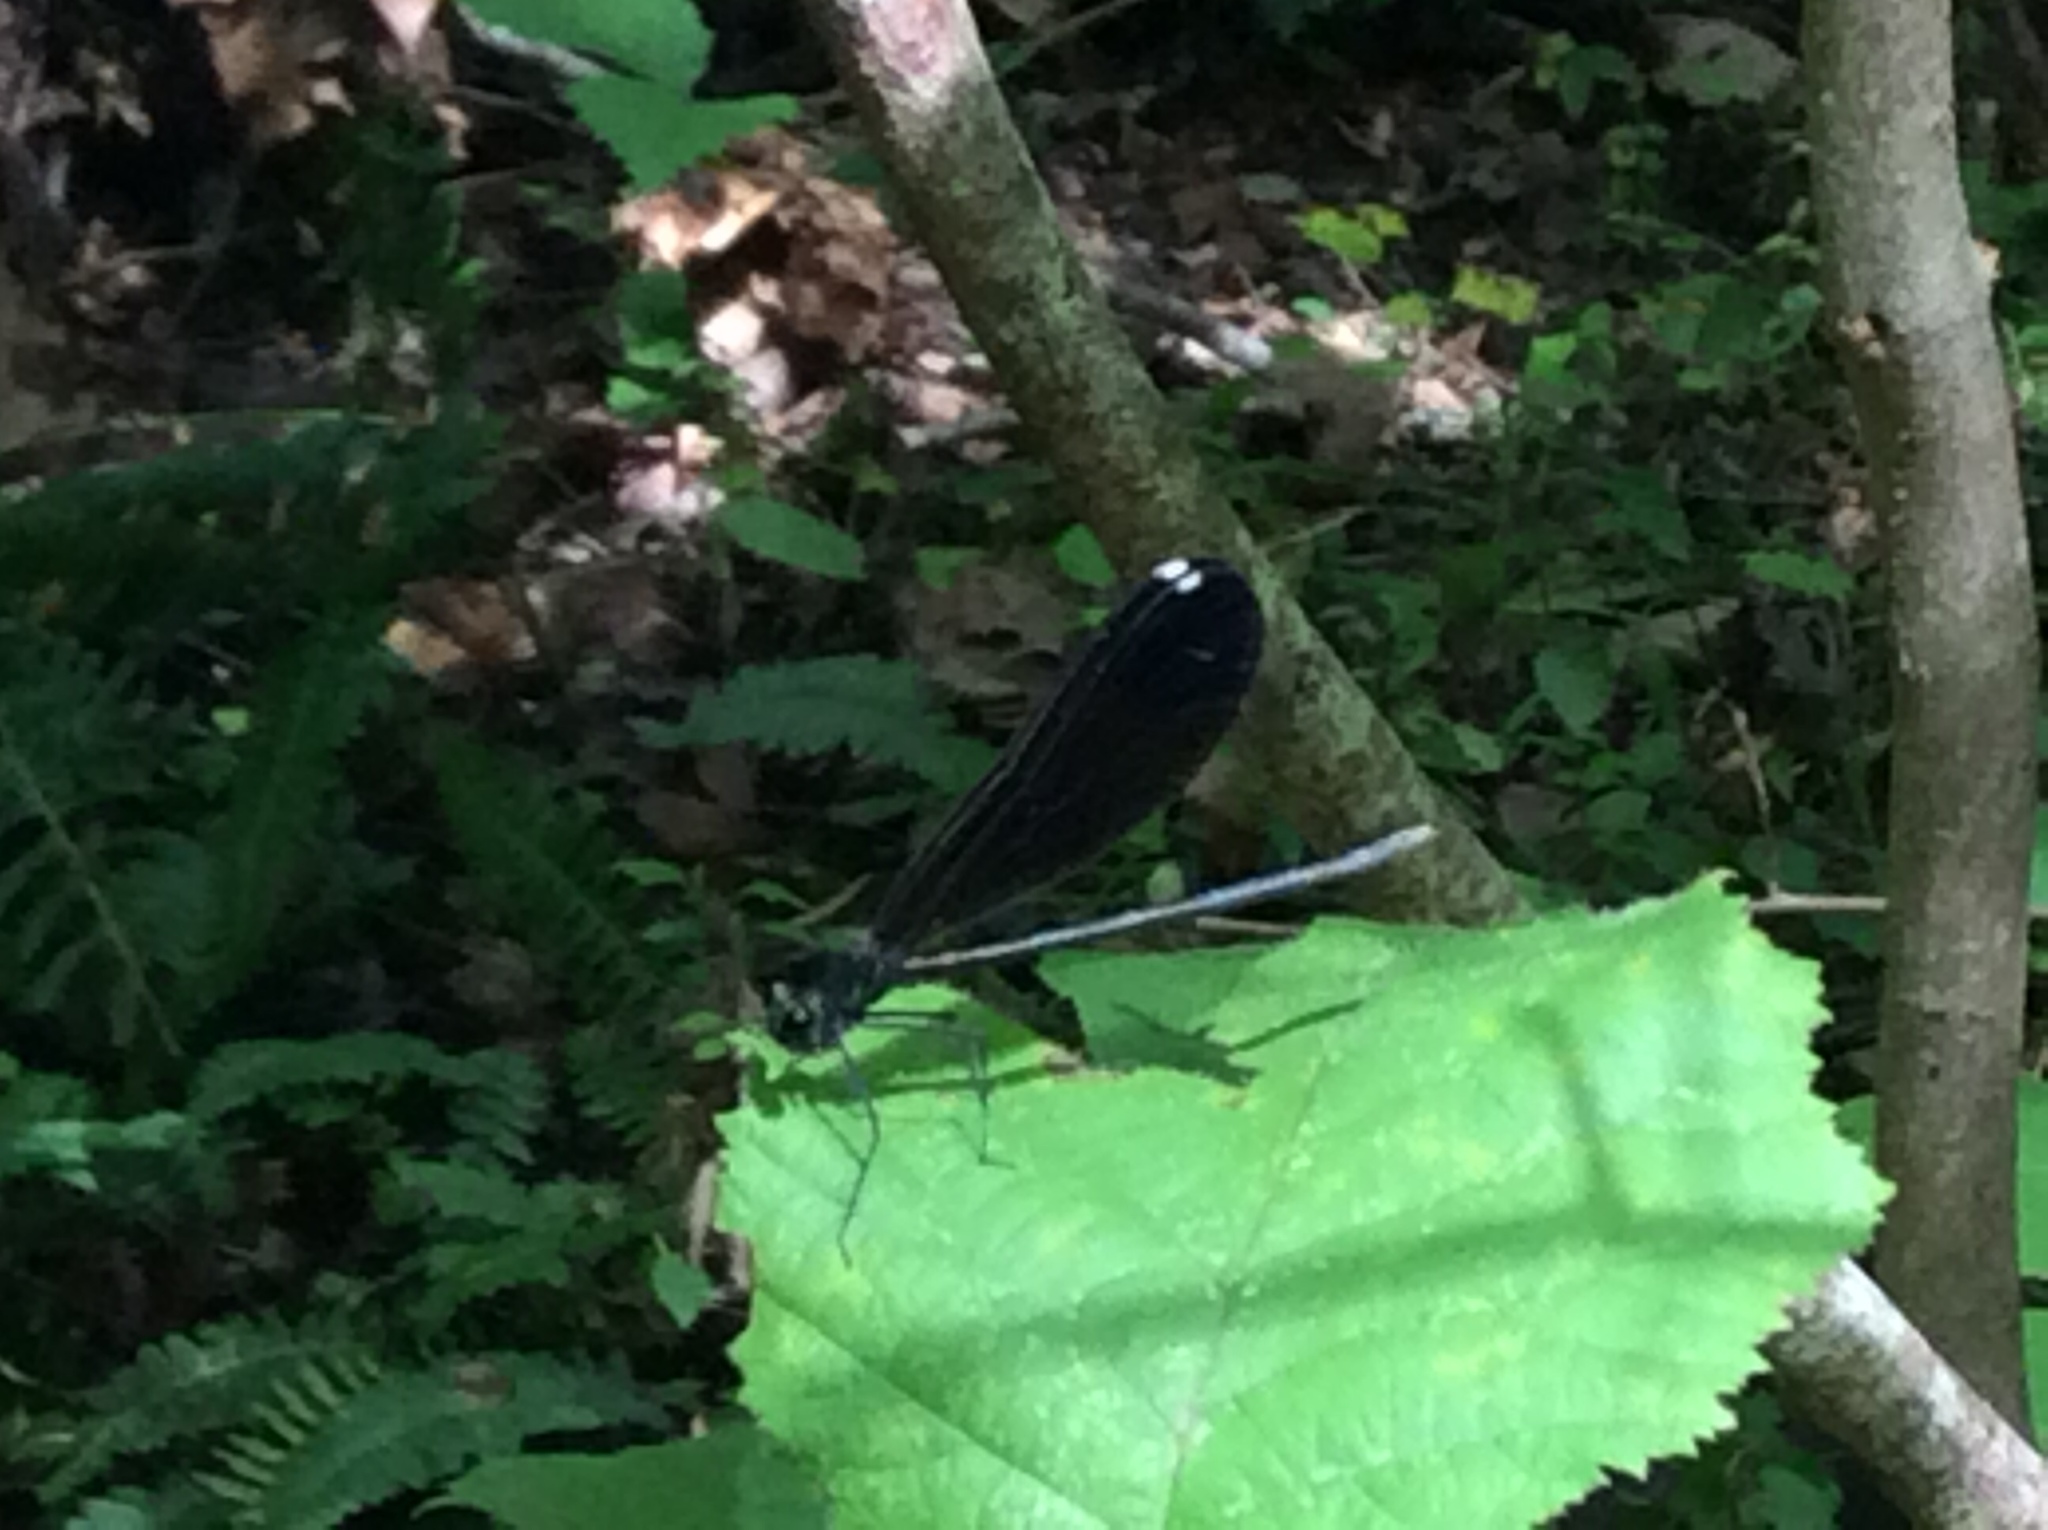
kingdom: Animalia
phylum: Arthropoda
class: Insecta
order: Odonata
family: Calopterygidae
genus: Calopteryx
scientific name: Calopteryx maculata
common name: Ebony jewelwing
